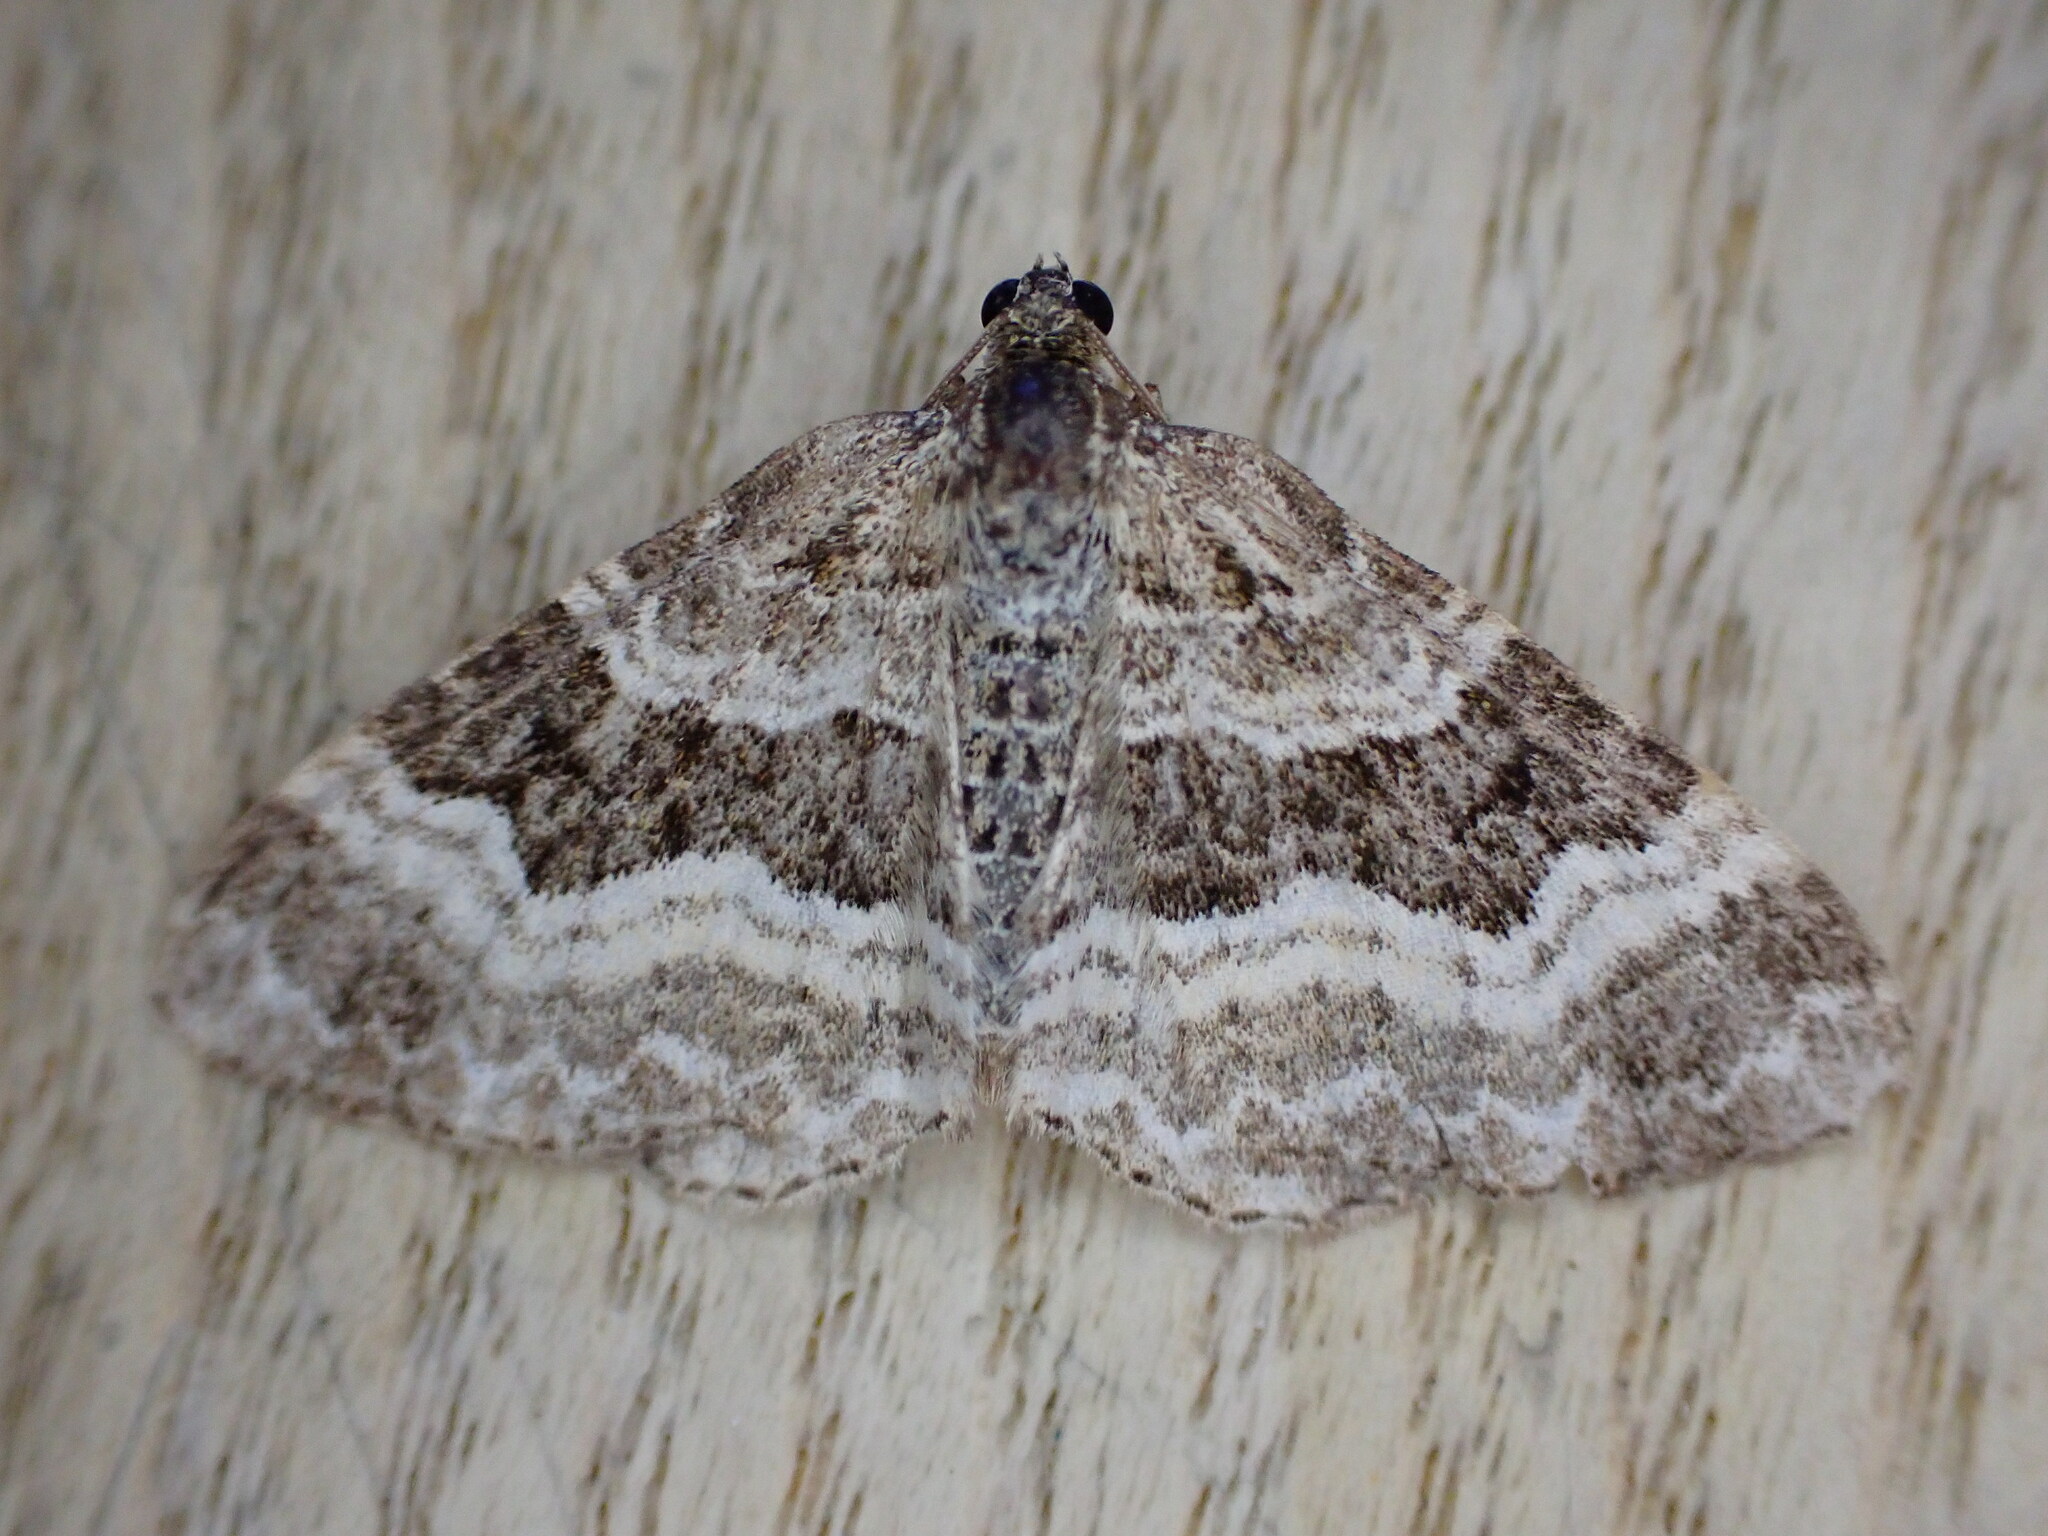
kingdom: Animalia
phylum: Arthropoda
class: Insecta
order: Lepidoptera
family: Geometridae
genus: Epirrhoe
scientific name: Epirrhoe alternata
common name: Common carpet
